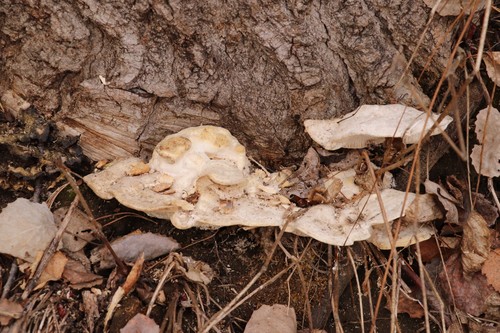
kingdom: Fungi
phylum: Basidiomycota
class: Agaricomycetes
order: Polyporales
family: Polyporaceae
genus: Trametes
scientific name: Trametes suaveolens
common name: Fragrant bracket
